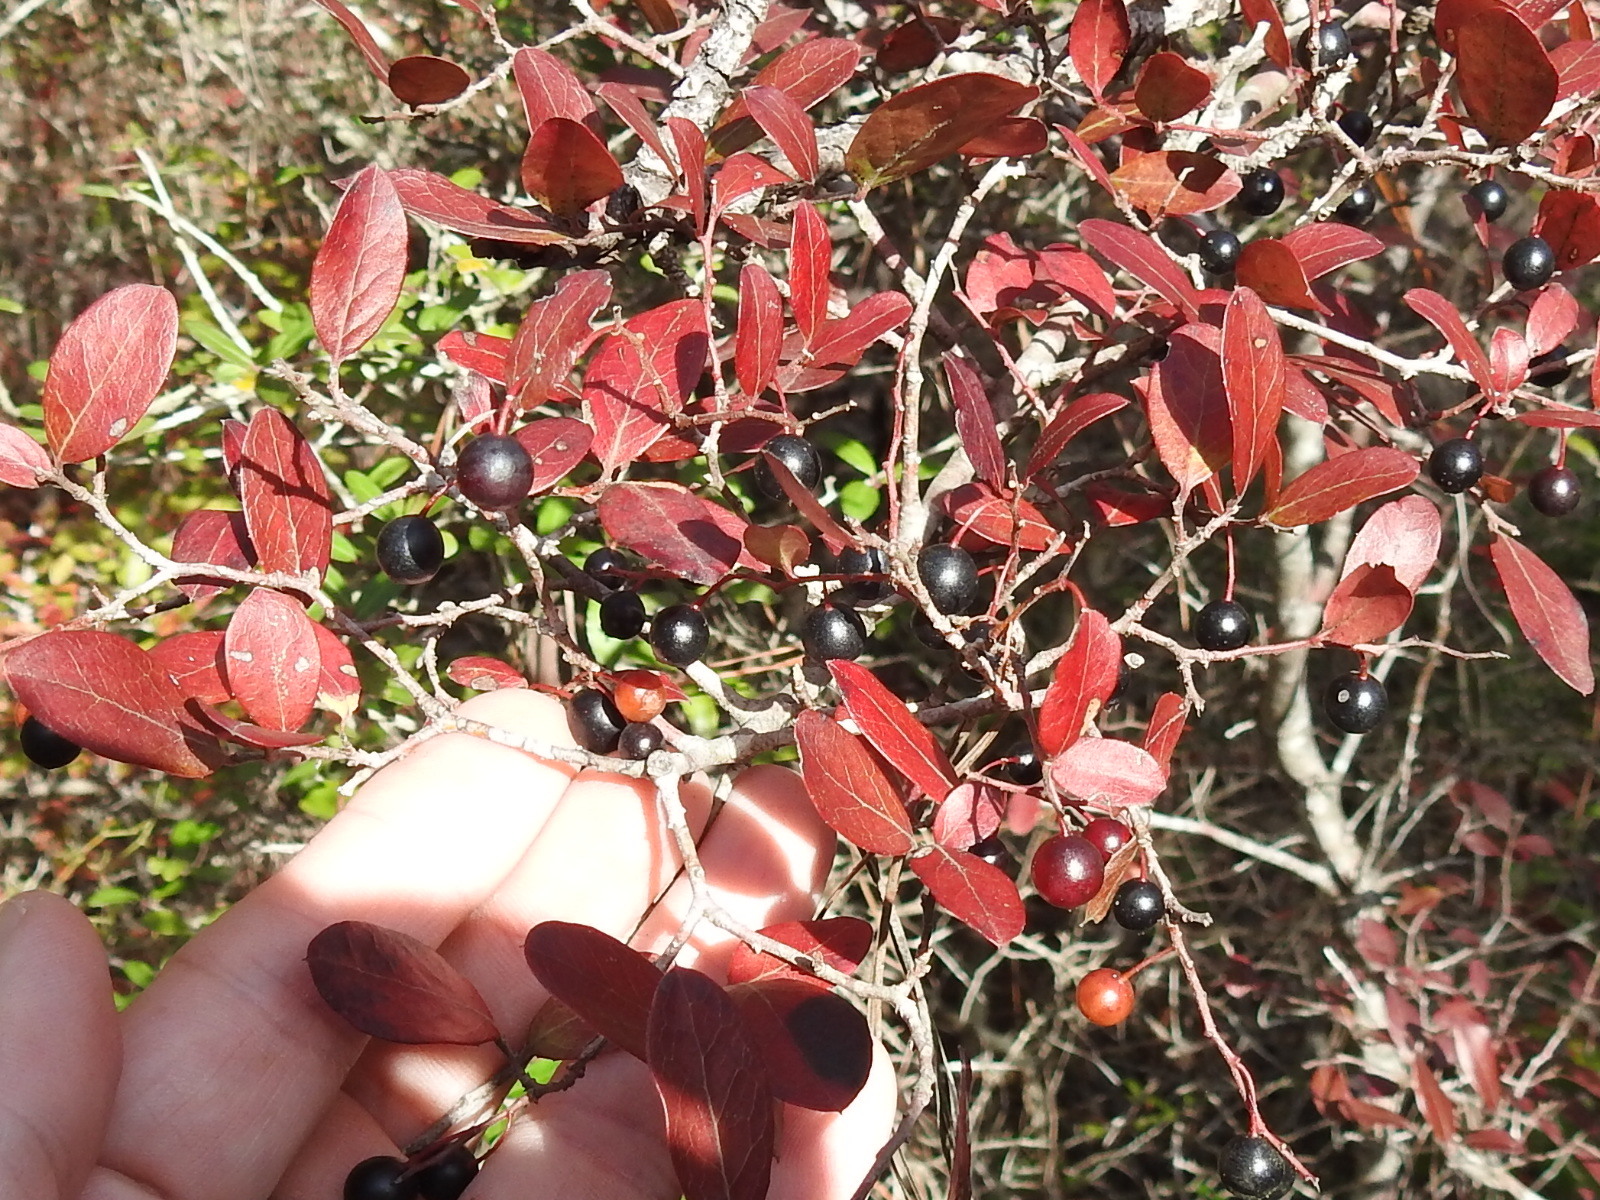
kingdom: Plantae
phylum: Tracheophyta
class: Magnoliopsida
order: Ericales
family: Ericaceae
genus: Vaccinium
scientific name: Vaccinium arboreum
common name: Farkleberry
